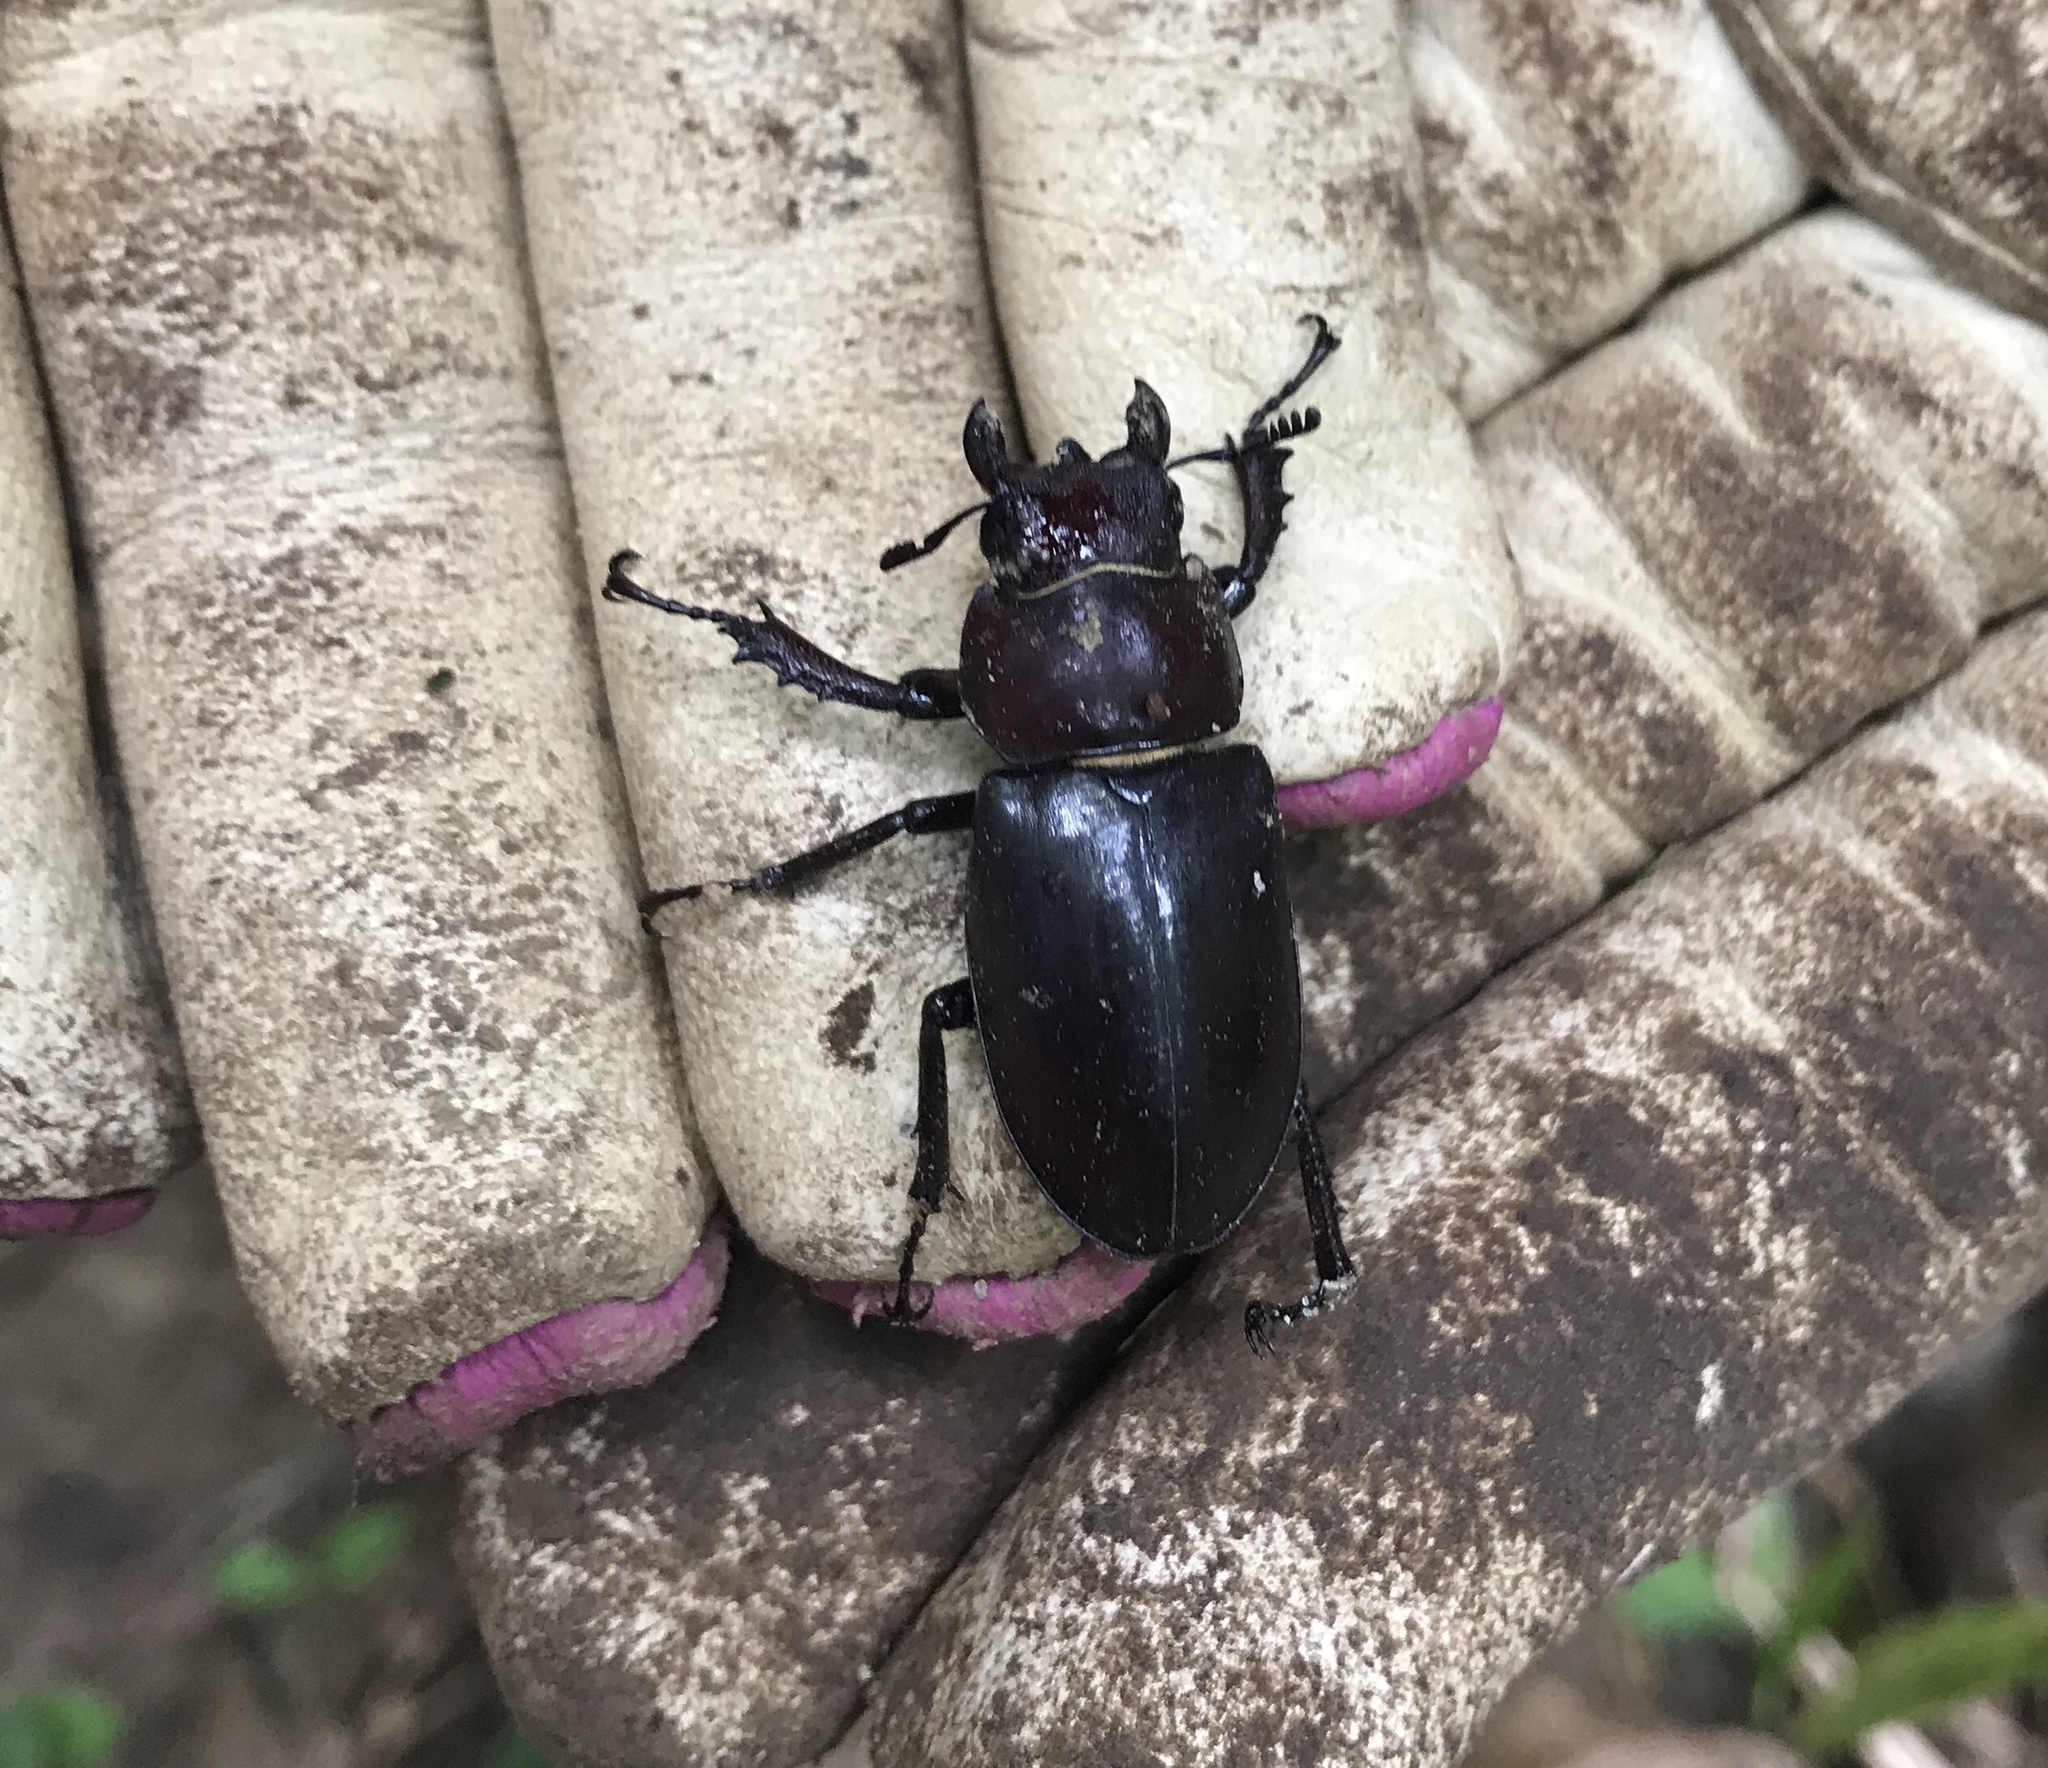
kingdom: Animalia
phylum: Arthropoda
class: Insecta
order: Coleoptera
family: Lucanidae
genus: Lucanus
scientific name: Lucanus elaphus
